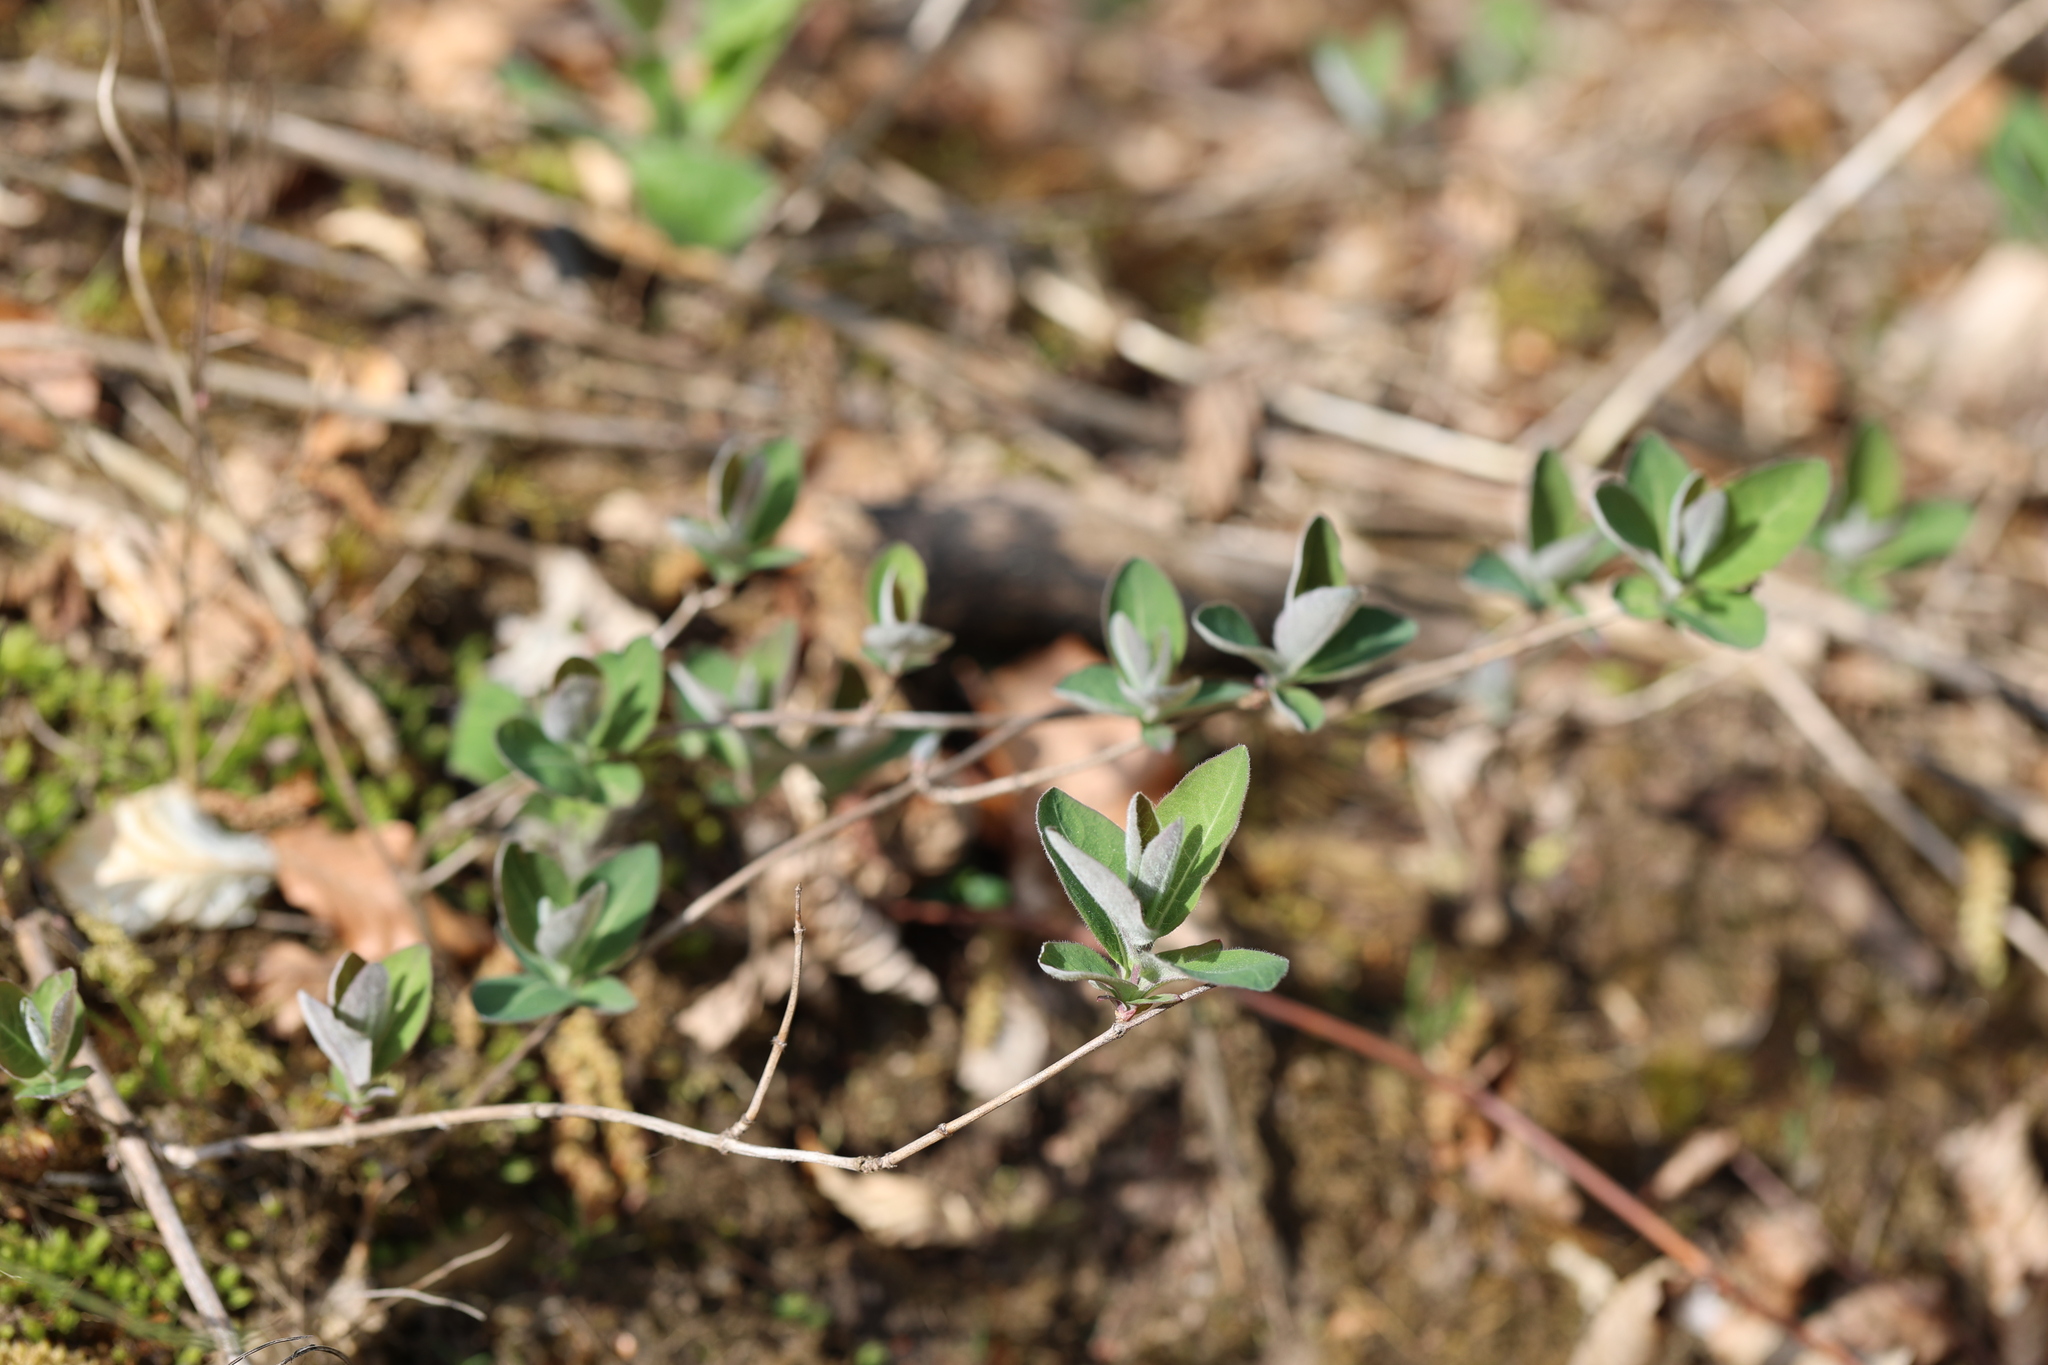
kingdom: Plantae
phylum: Tracheophyta
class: Magnoliopsida
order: Dipsacales
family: Caprifoliaceae
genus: Lonicera
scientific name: Lonicera periclymenum
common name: European honeysuckle
